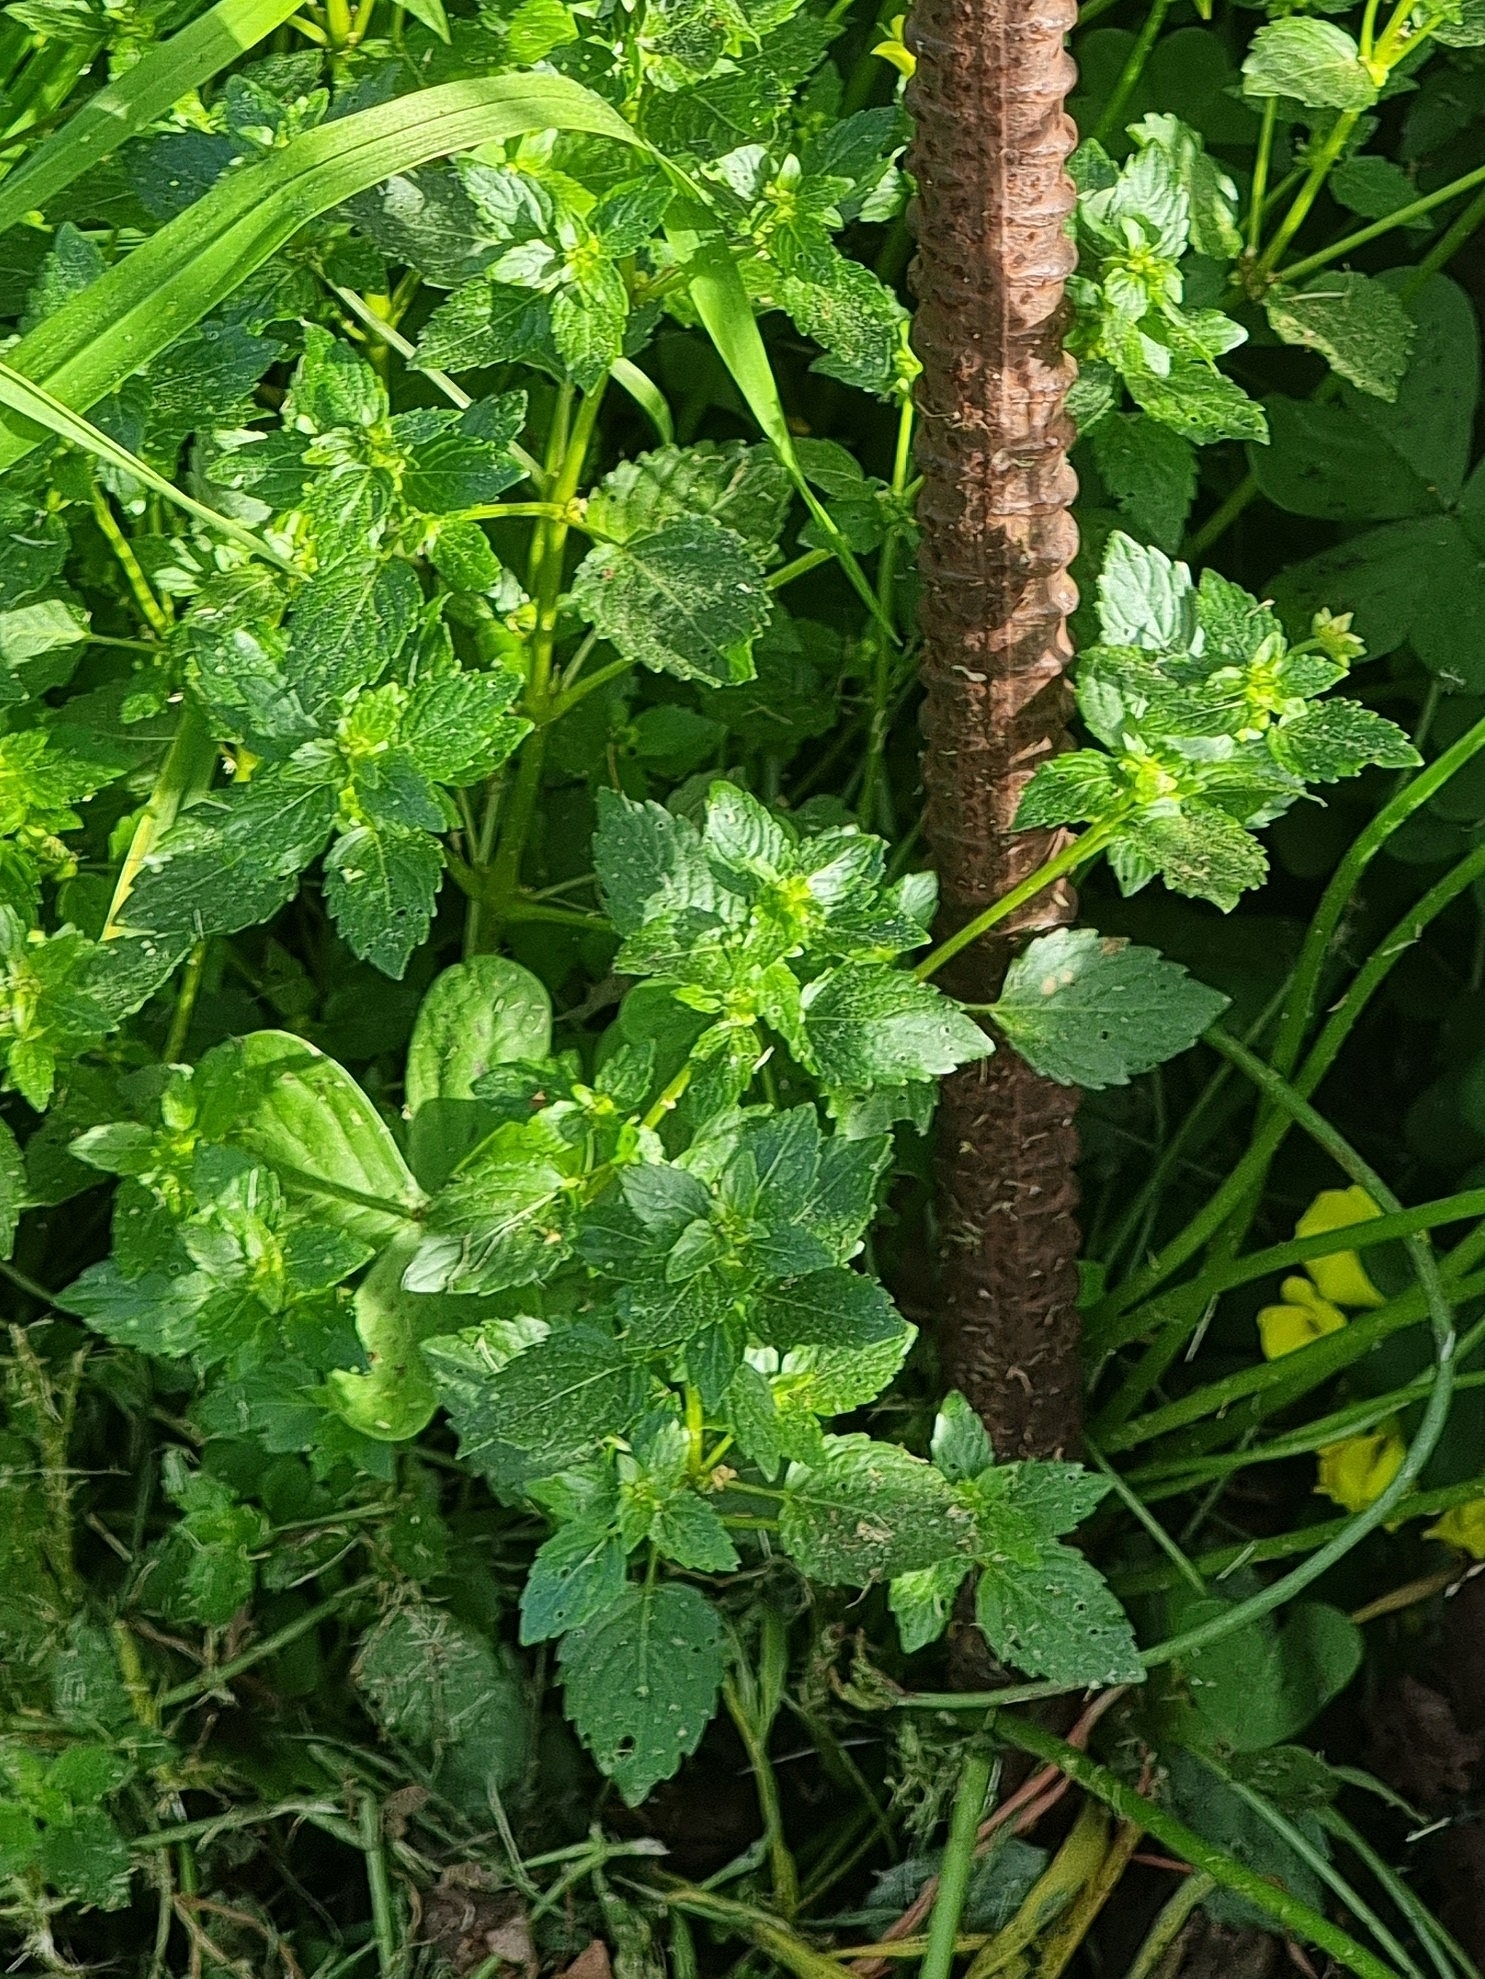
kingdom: Plantae
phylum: Tracheophyta
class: Magnoliopsida
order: Malpighiales
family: Euphorbiaceae
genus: Mercurialis
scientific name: Mercurialis annua
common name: Annual mercury
